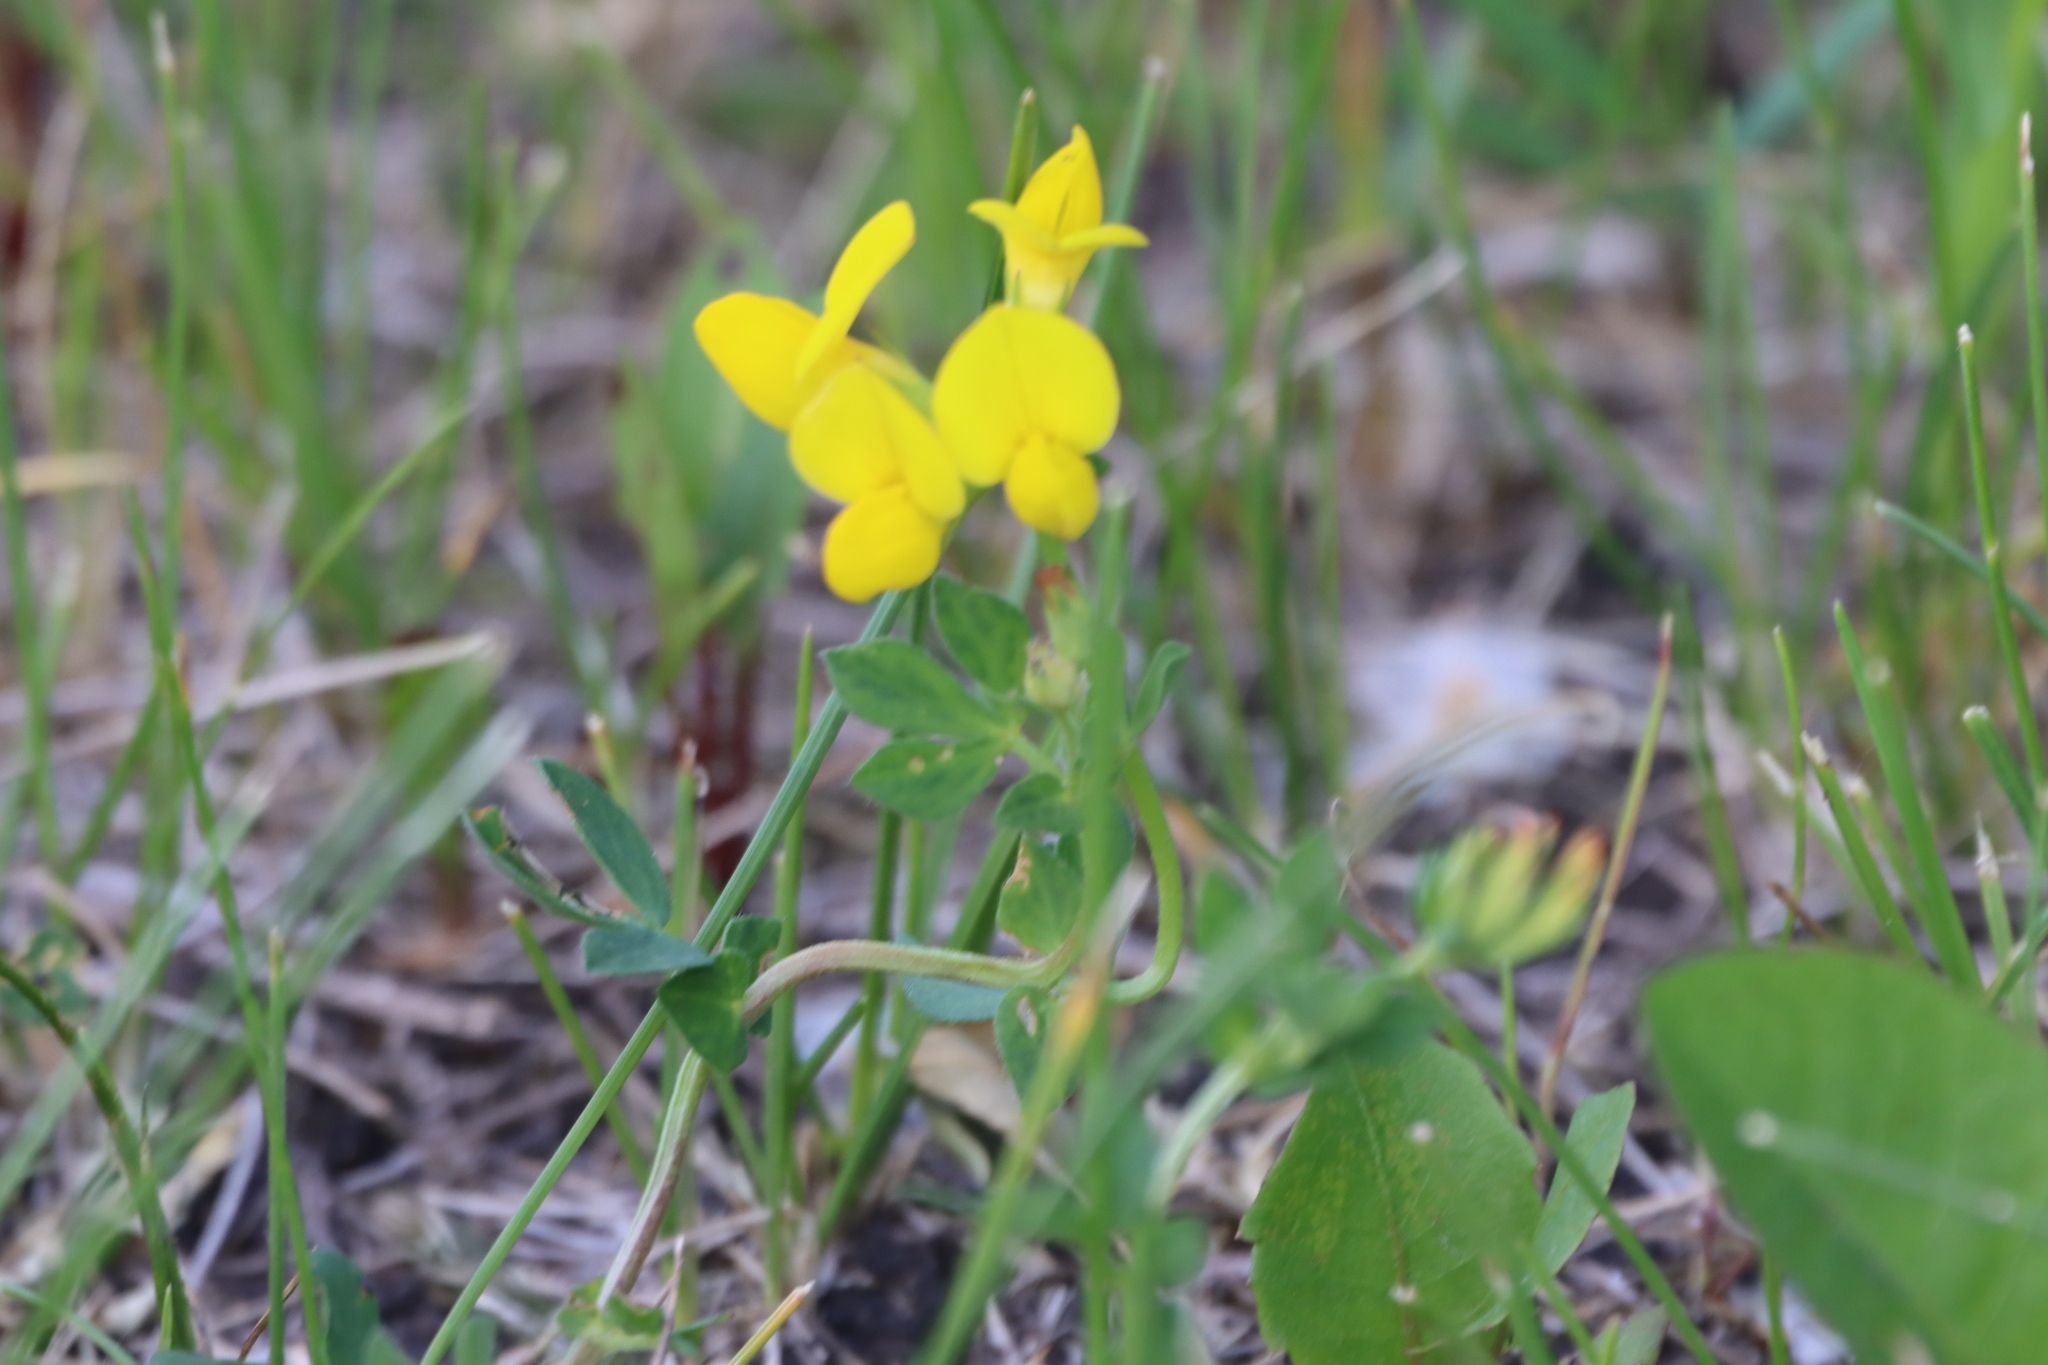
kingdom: Plantae
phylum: Tracheophyta
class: Magnoliopsida
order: Fabales
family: Fabaceae
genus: Lotus
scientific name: Lotus corniculatus
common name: Common bird's-foot-trefoil
